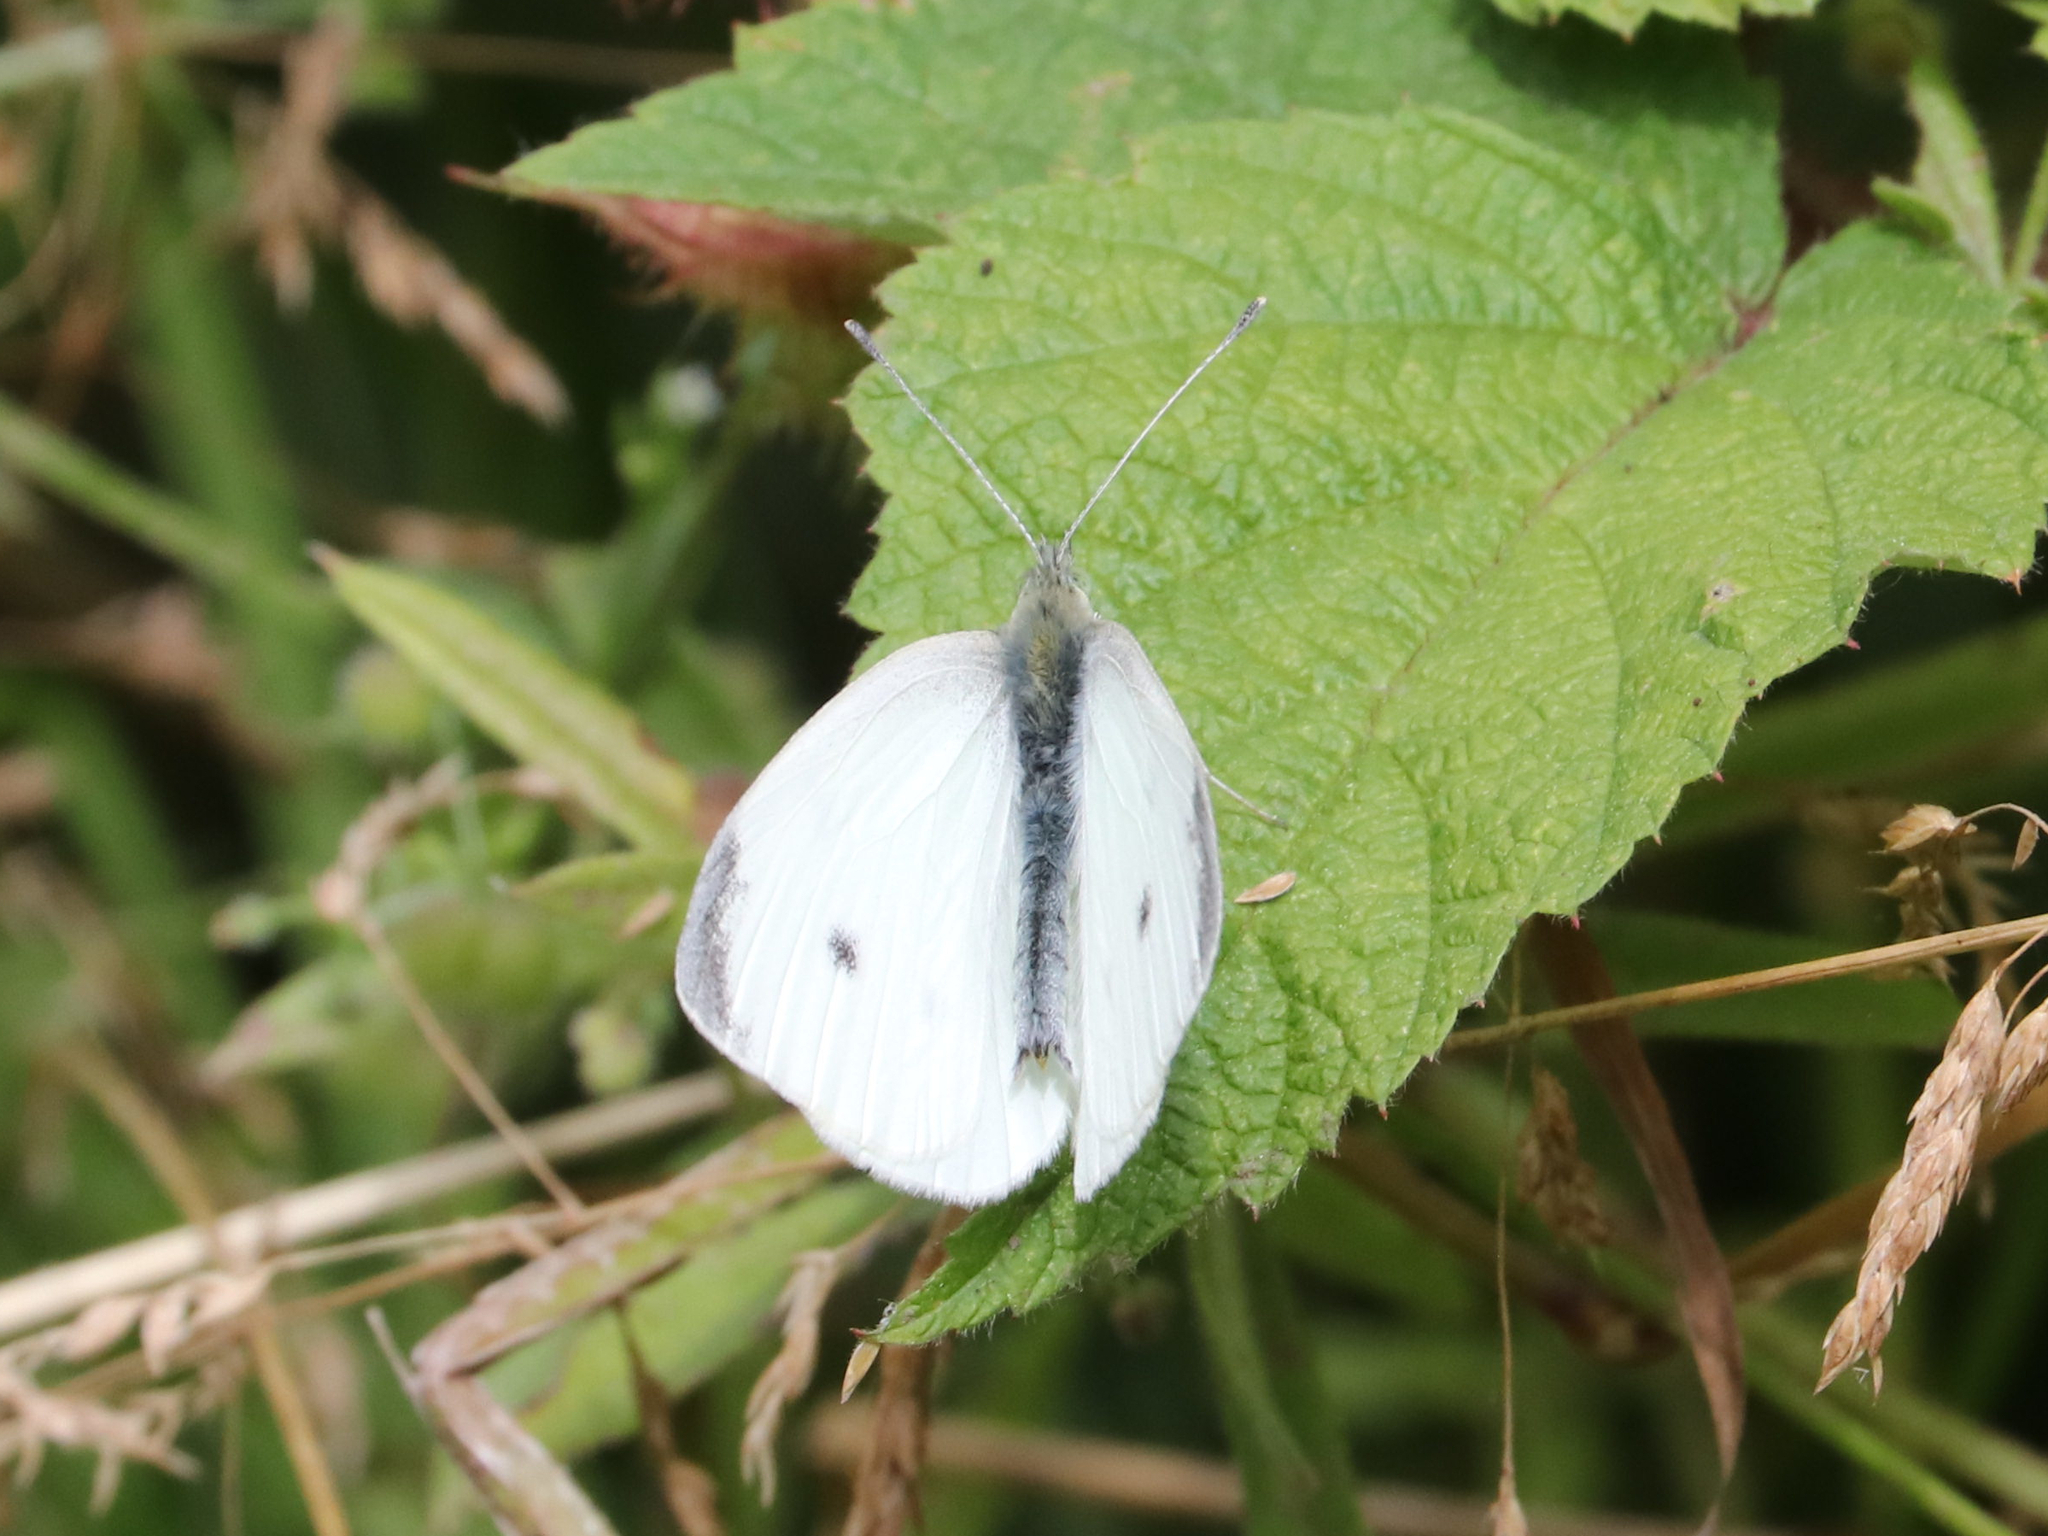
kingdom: Animalia
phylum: Arthropoda
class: Insecta
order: Lepidoptera
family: Pieridae
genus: Pieris
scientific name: Pieris rapae
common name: Small white
